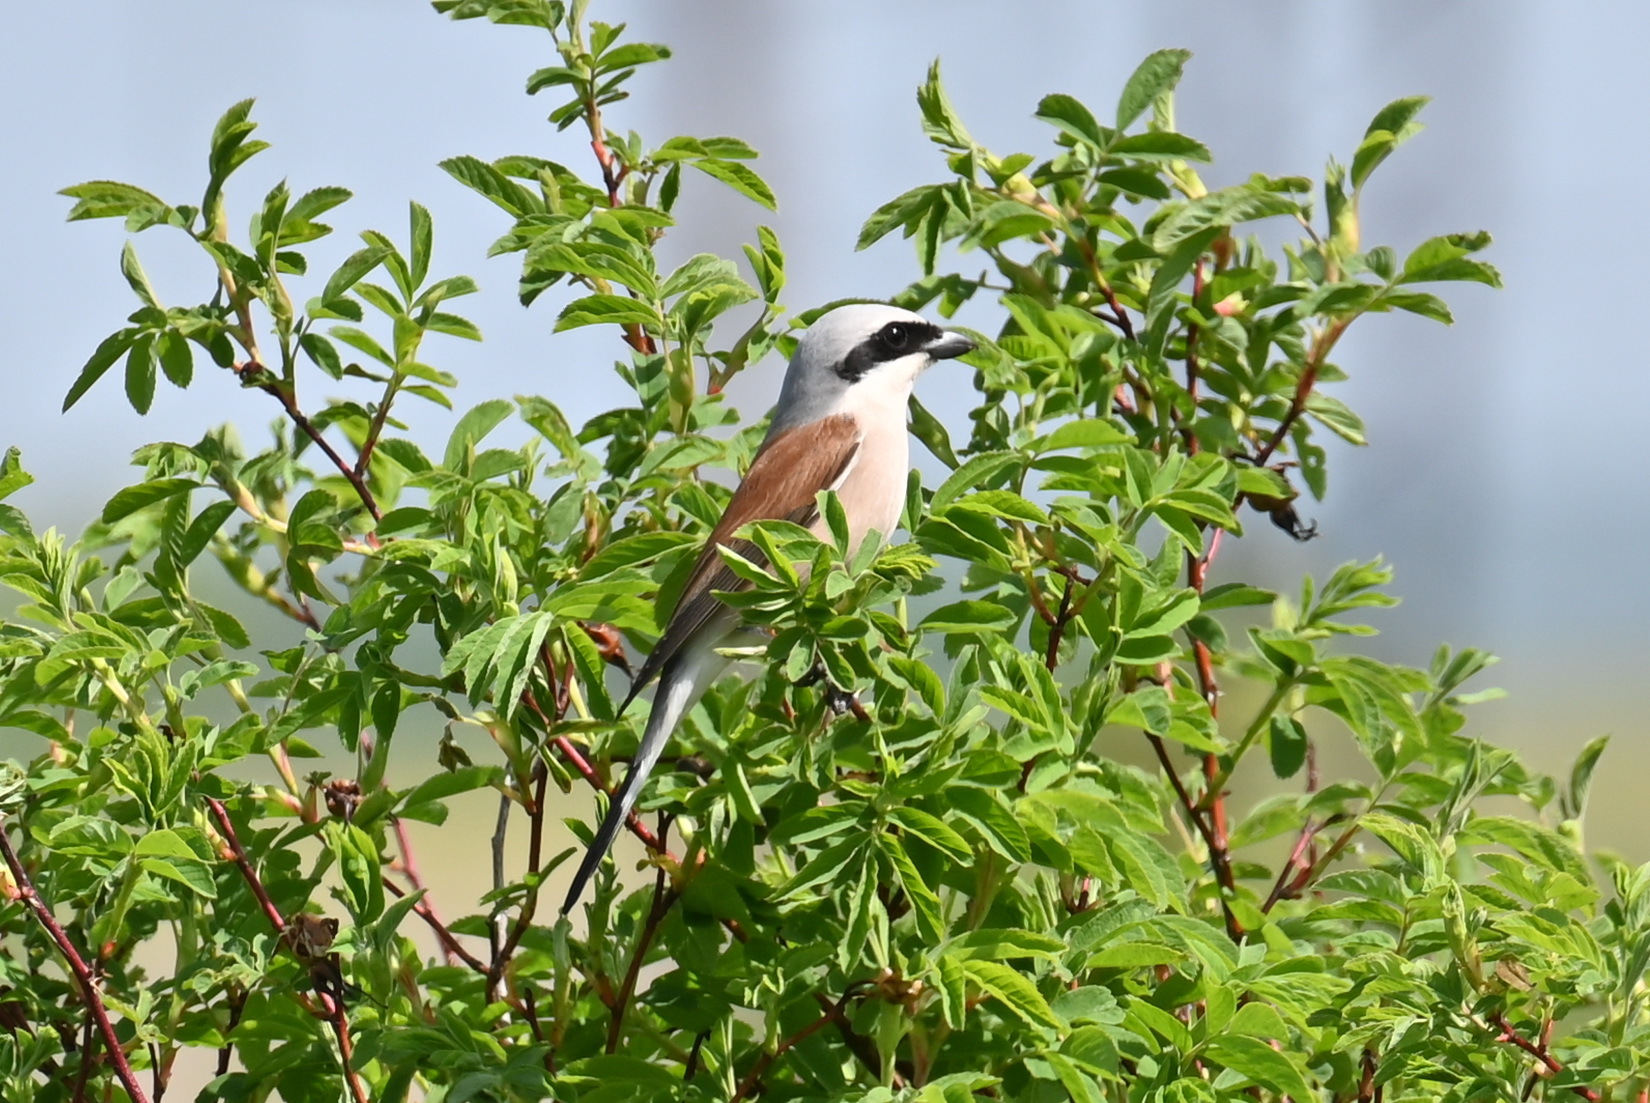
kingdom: Animalia
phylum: Chordata
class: Aves
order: Passeriformes
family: Laniidae
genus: Lanius
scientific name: Lanius collurio
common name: Red-backed shrike
